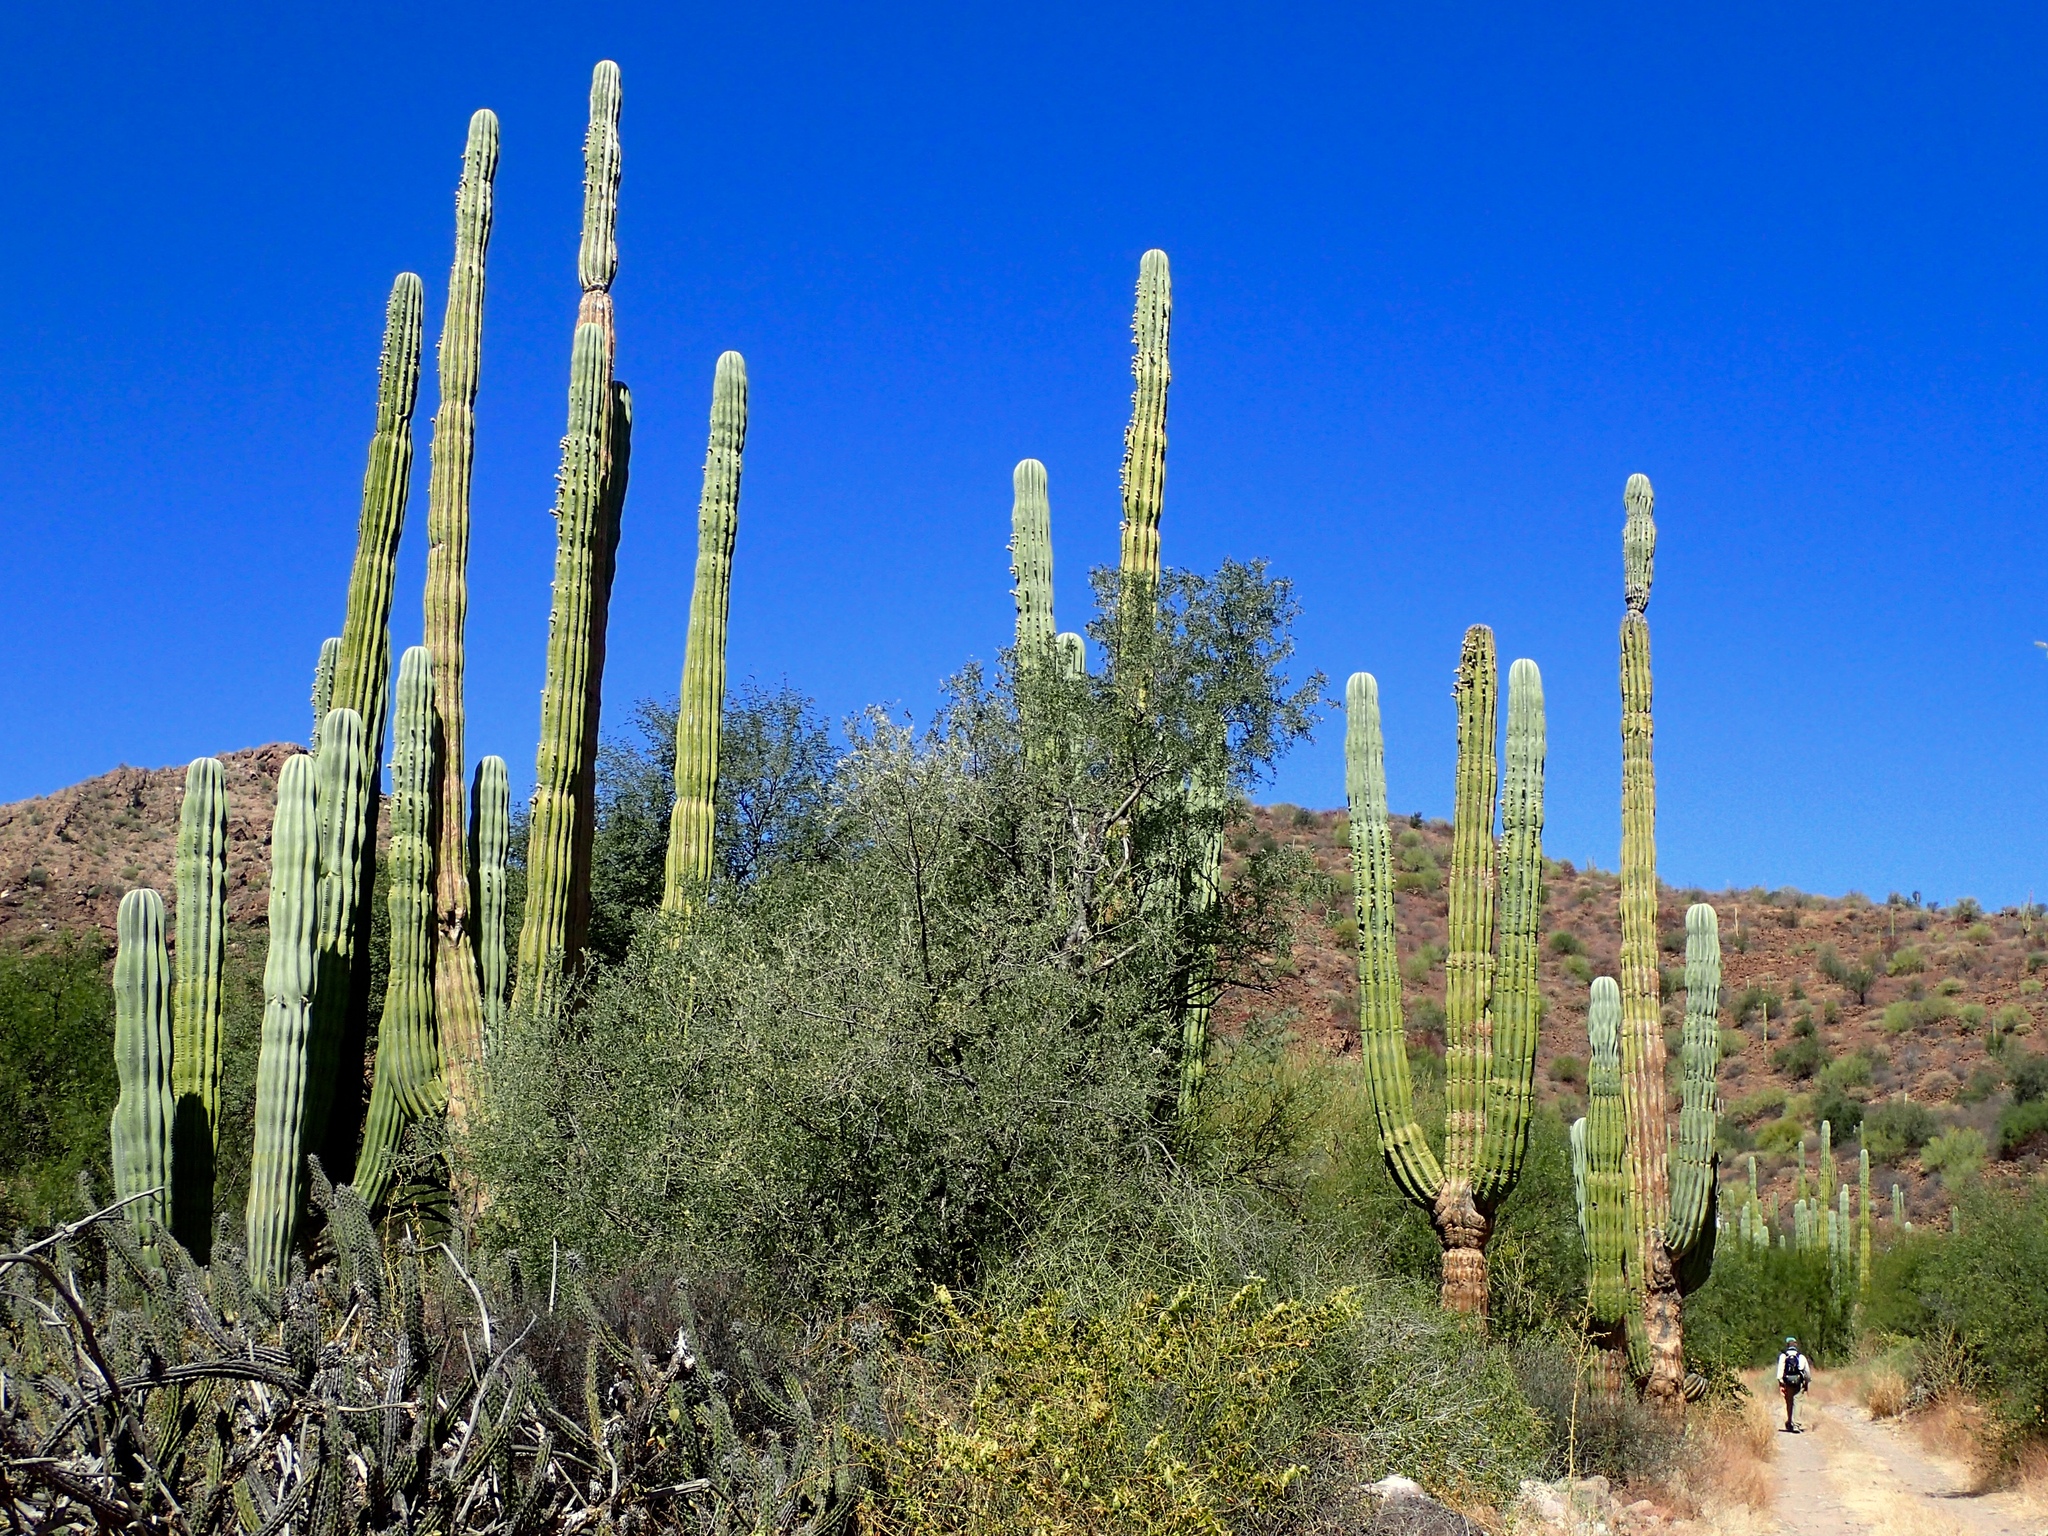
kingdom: Plantae
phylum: Tracheophyta
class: Magnoliopsida
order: Caryophyllales
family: Cactaceae
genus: Pachycereus
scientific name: Pachycereus pringlei
